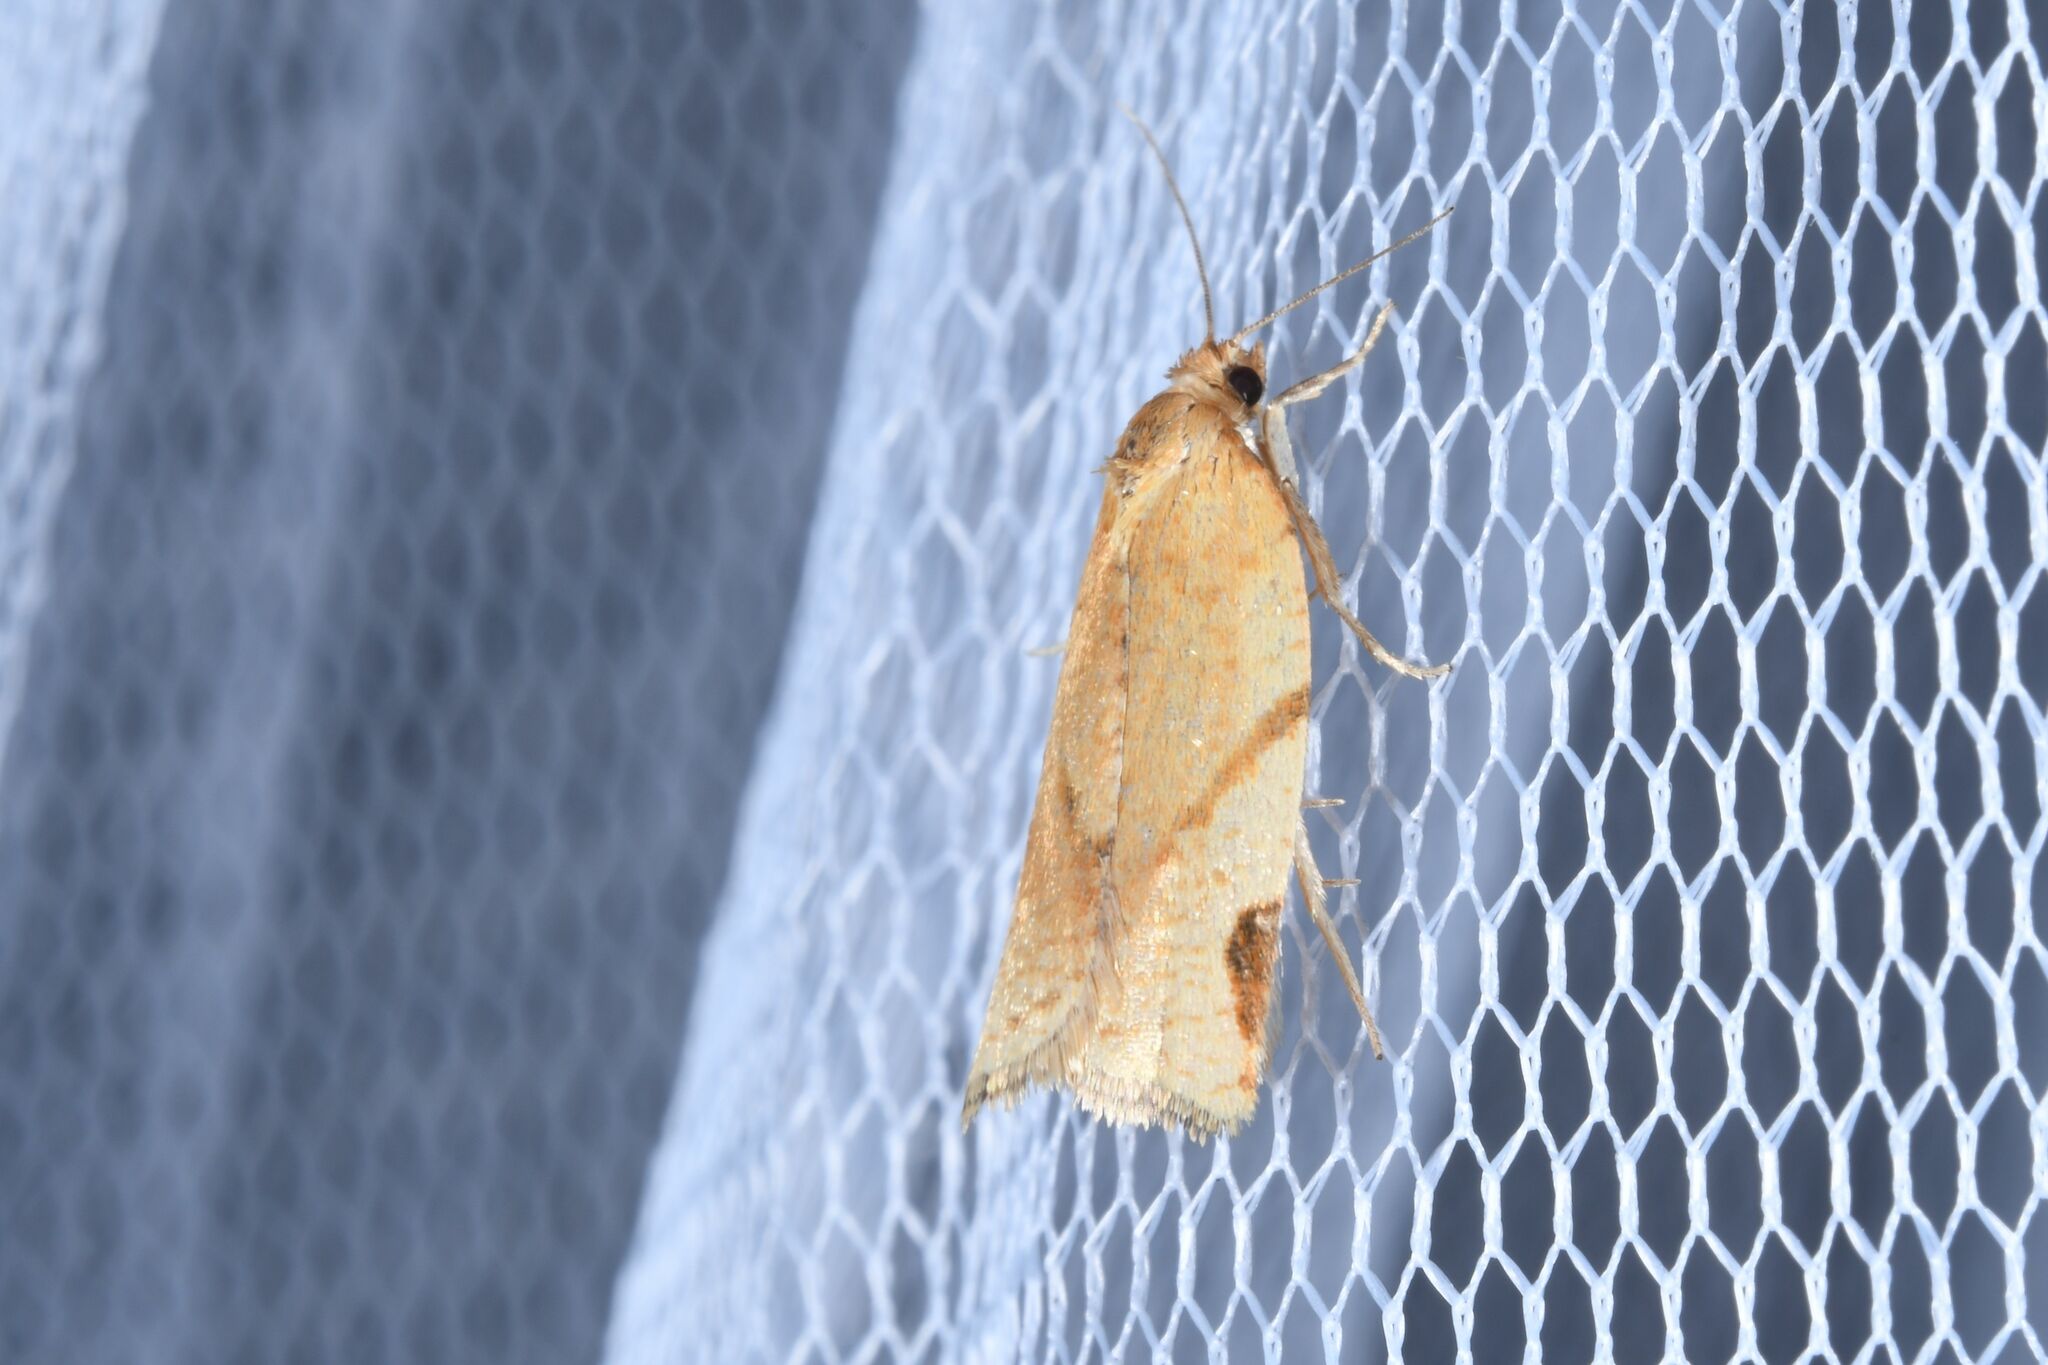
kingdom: Animalia
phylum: Arthropoda
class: Insecta
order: Lepidoptera
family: Tortricidae
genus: Paramesia
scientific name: Paramesia gnomana
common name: Small straw twist
